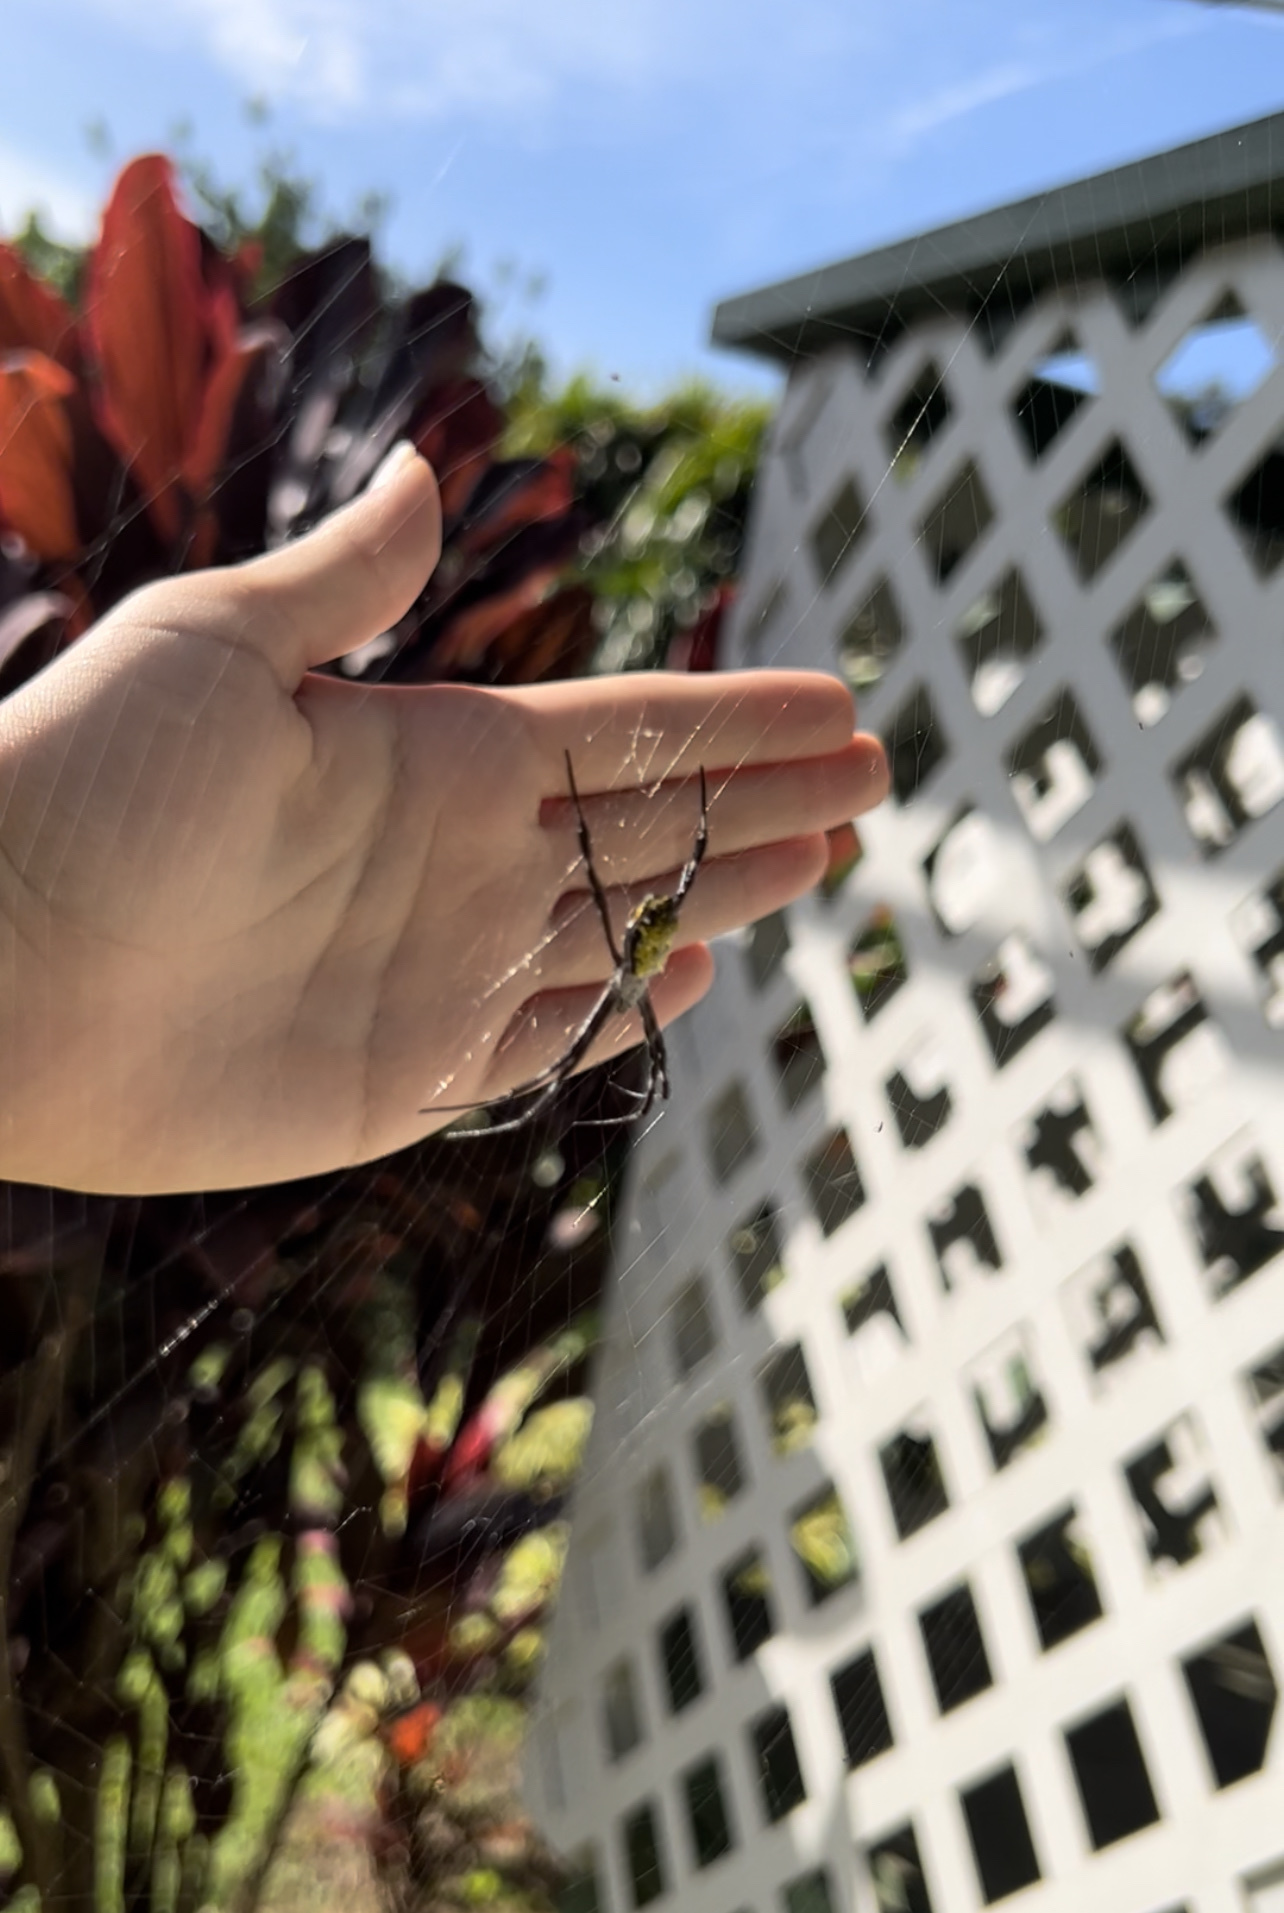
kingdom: Animalia
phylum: Arthropoda
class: Arachnida
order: Araneae
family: Araneidae
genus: Argiope
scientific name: Argiope appensa
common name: Garden spider
